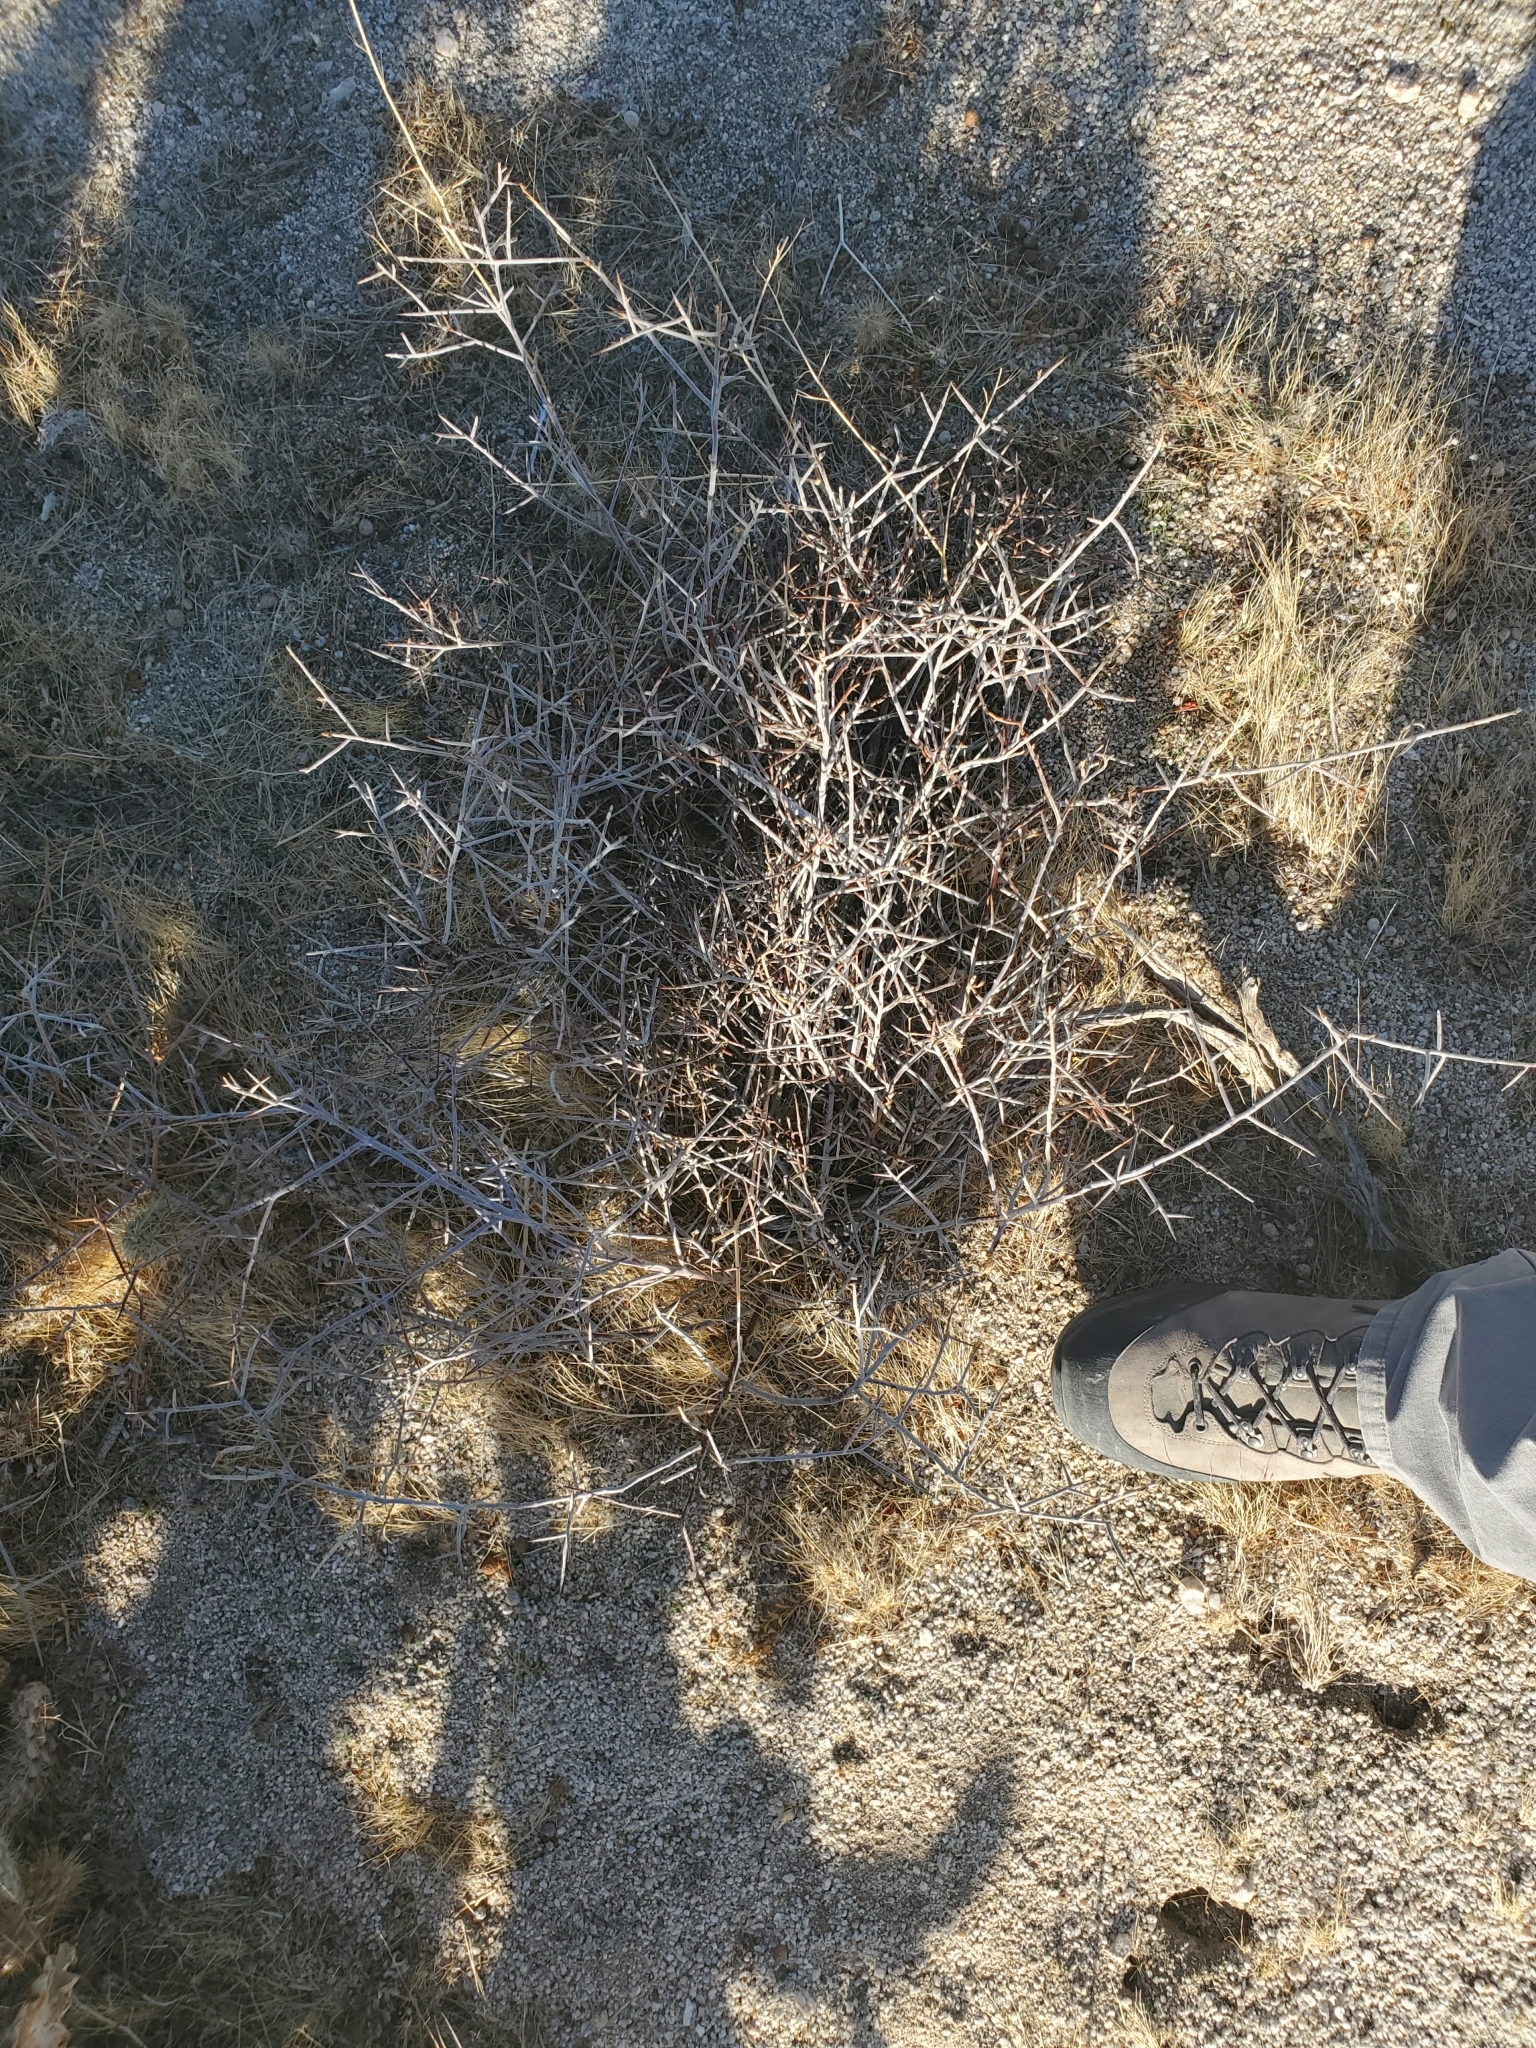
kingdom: Plantae
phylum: Tracheophyta
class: Magnoliopsida
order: Zygophyllales
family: Krameriaceae
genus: Krameria
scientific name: Krameria bicolor
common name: White ratany
